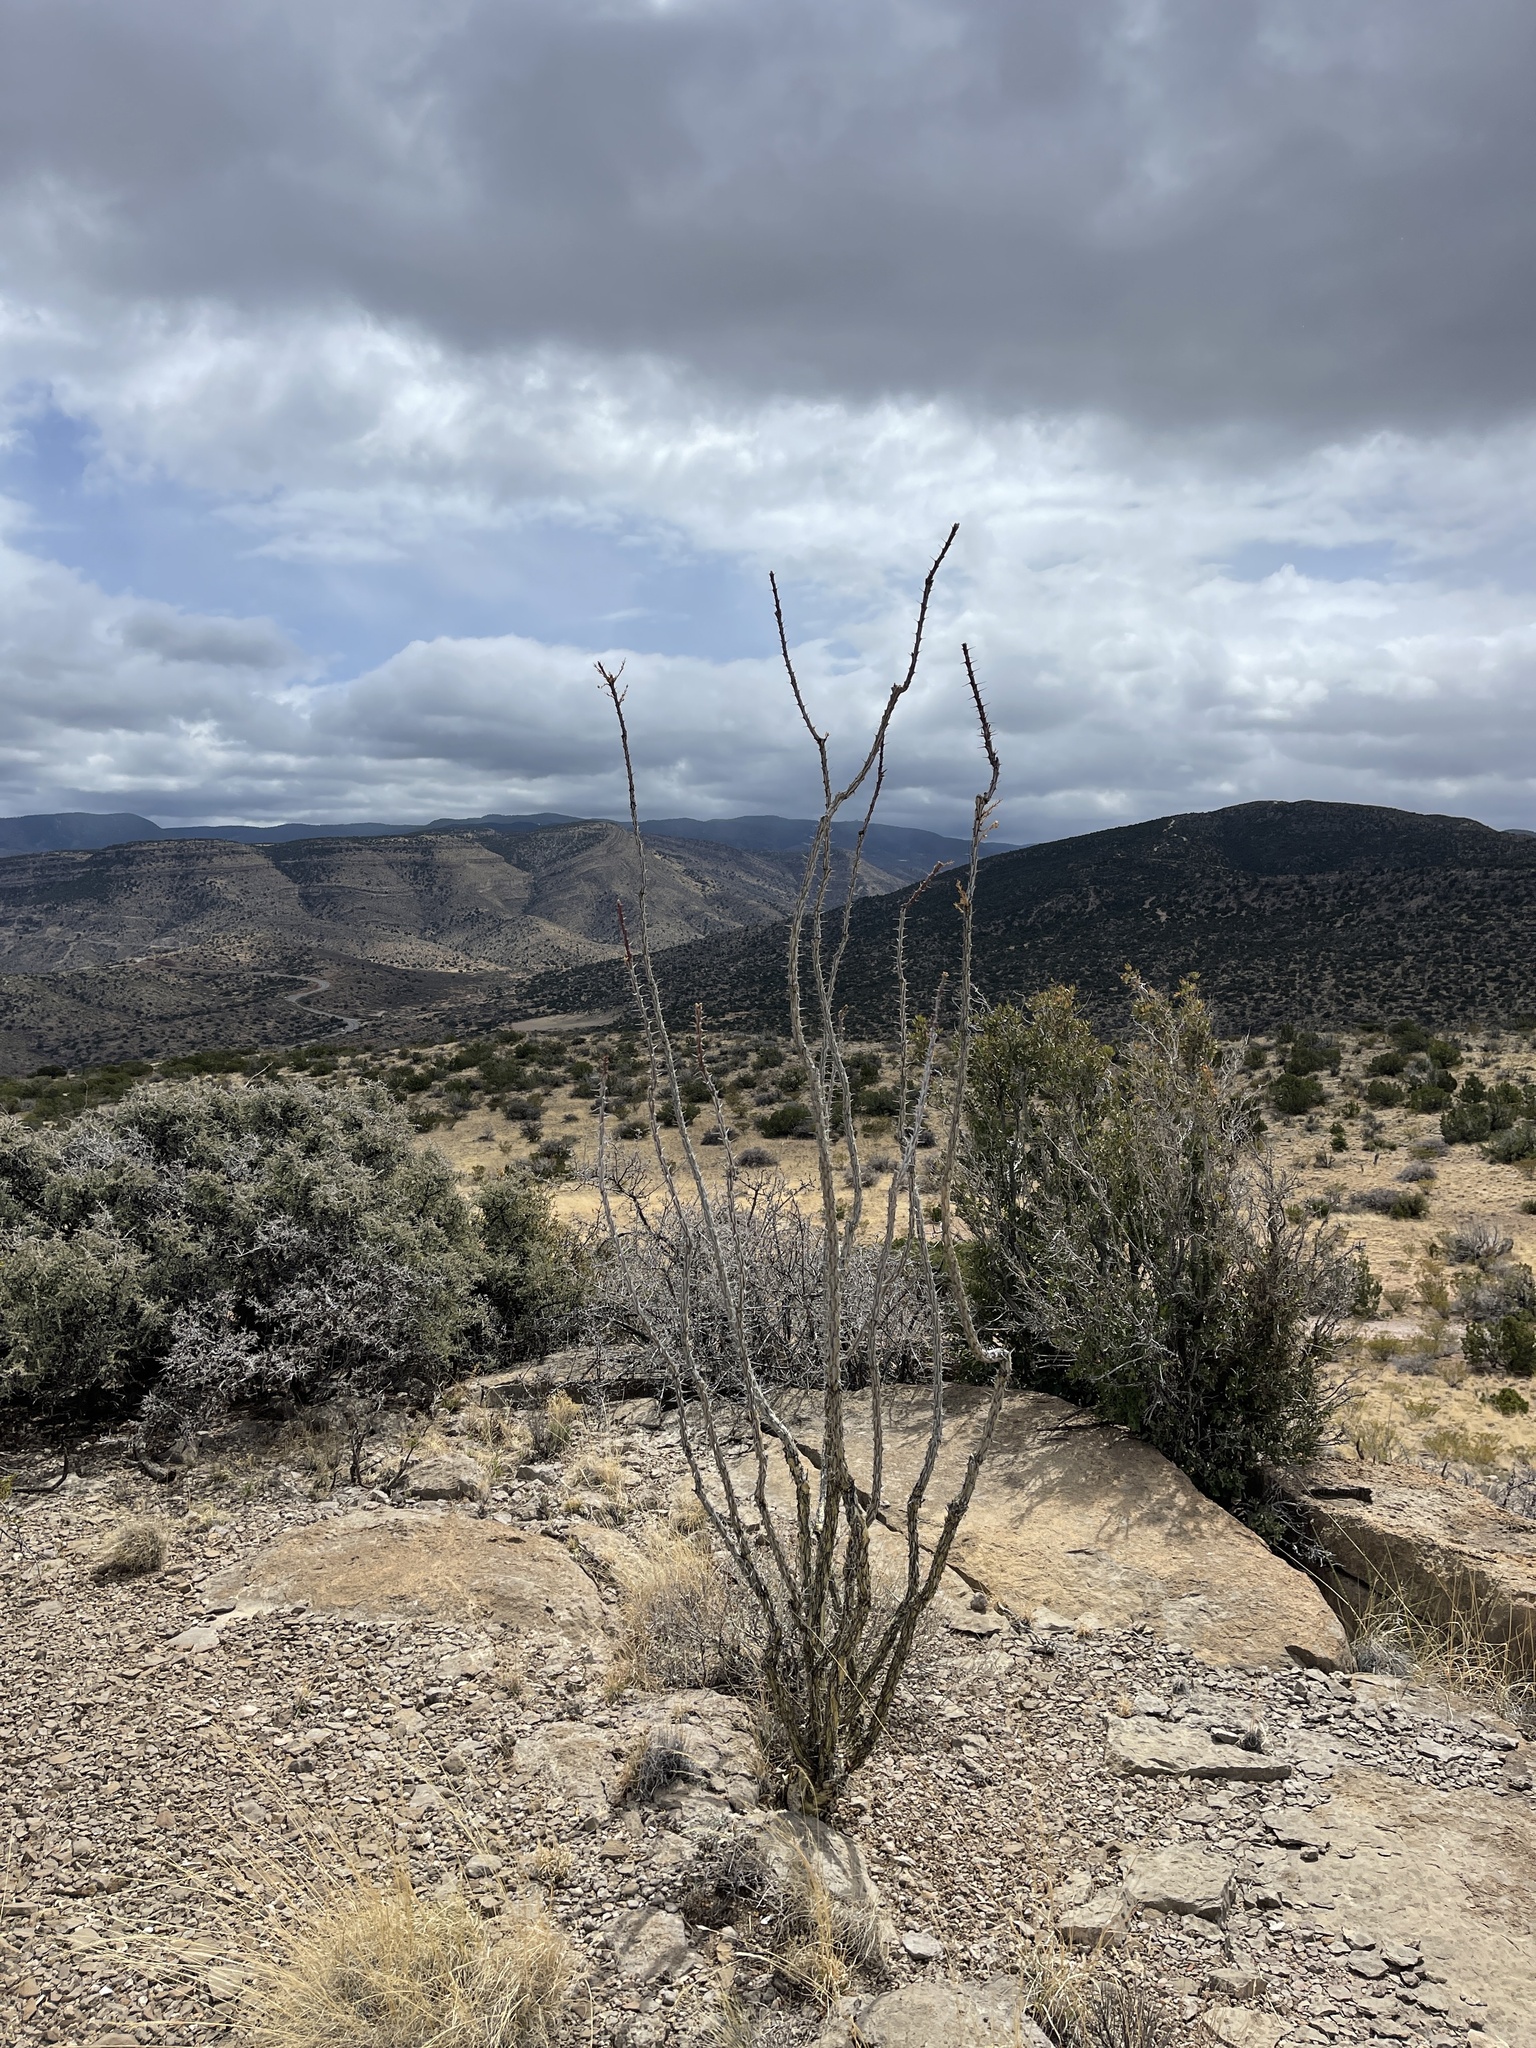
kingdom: Plantae
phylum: Tracheophyta
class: Magnoliopsida
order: Ericales
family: Fouquieriaceae
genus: Fouquieria
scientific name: Fouquieria splendens
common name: Vine-cactus
